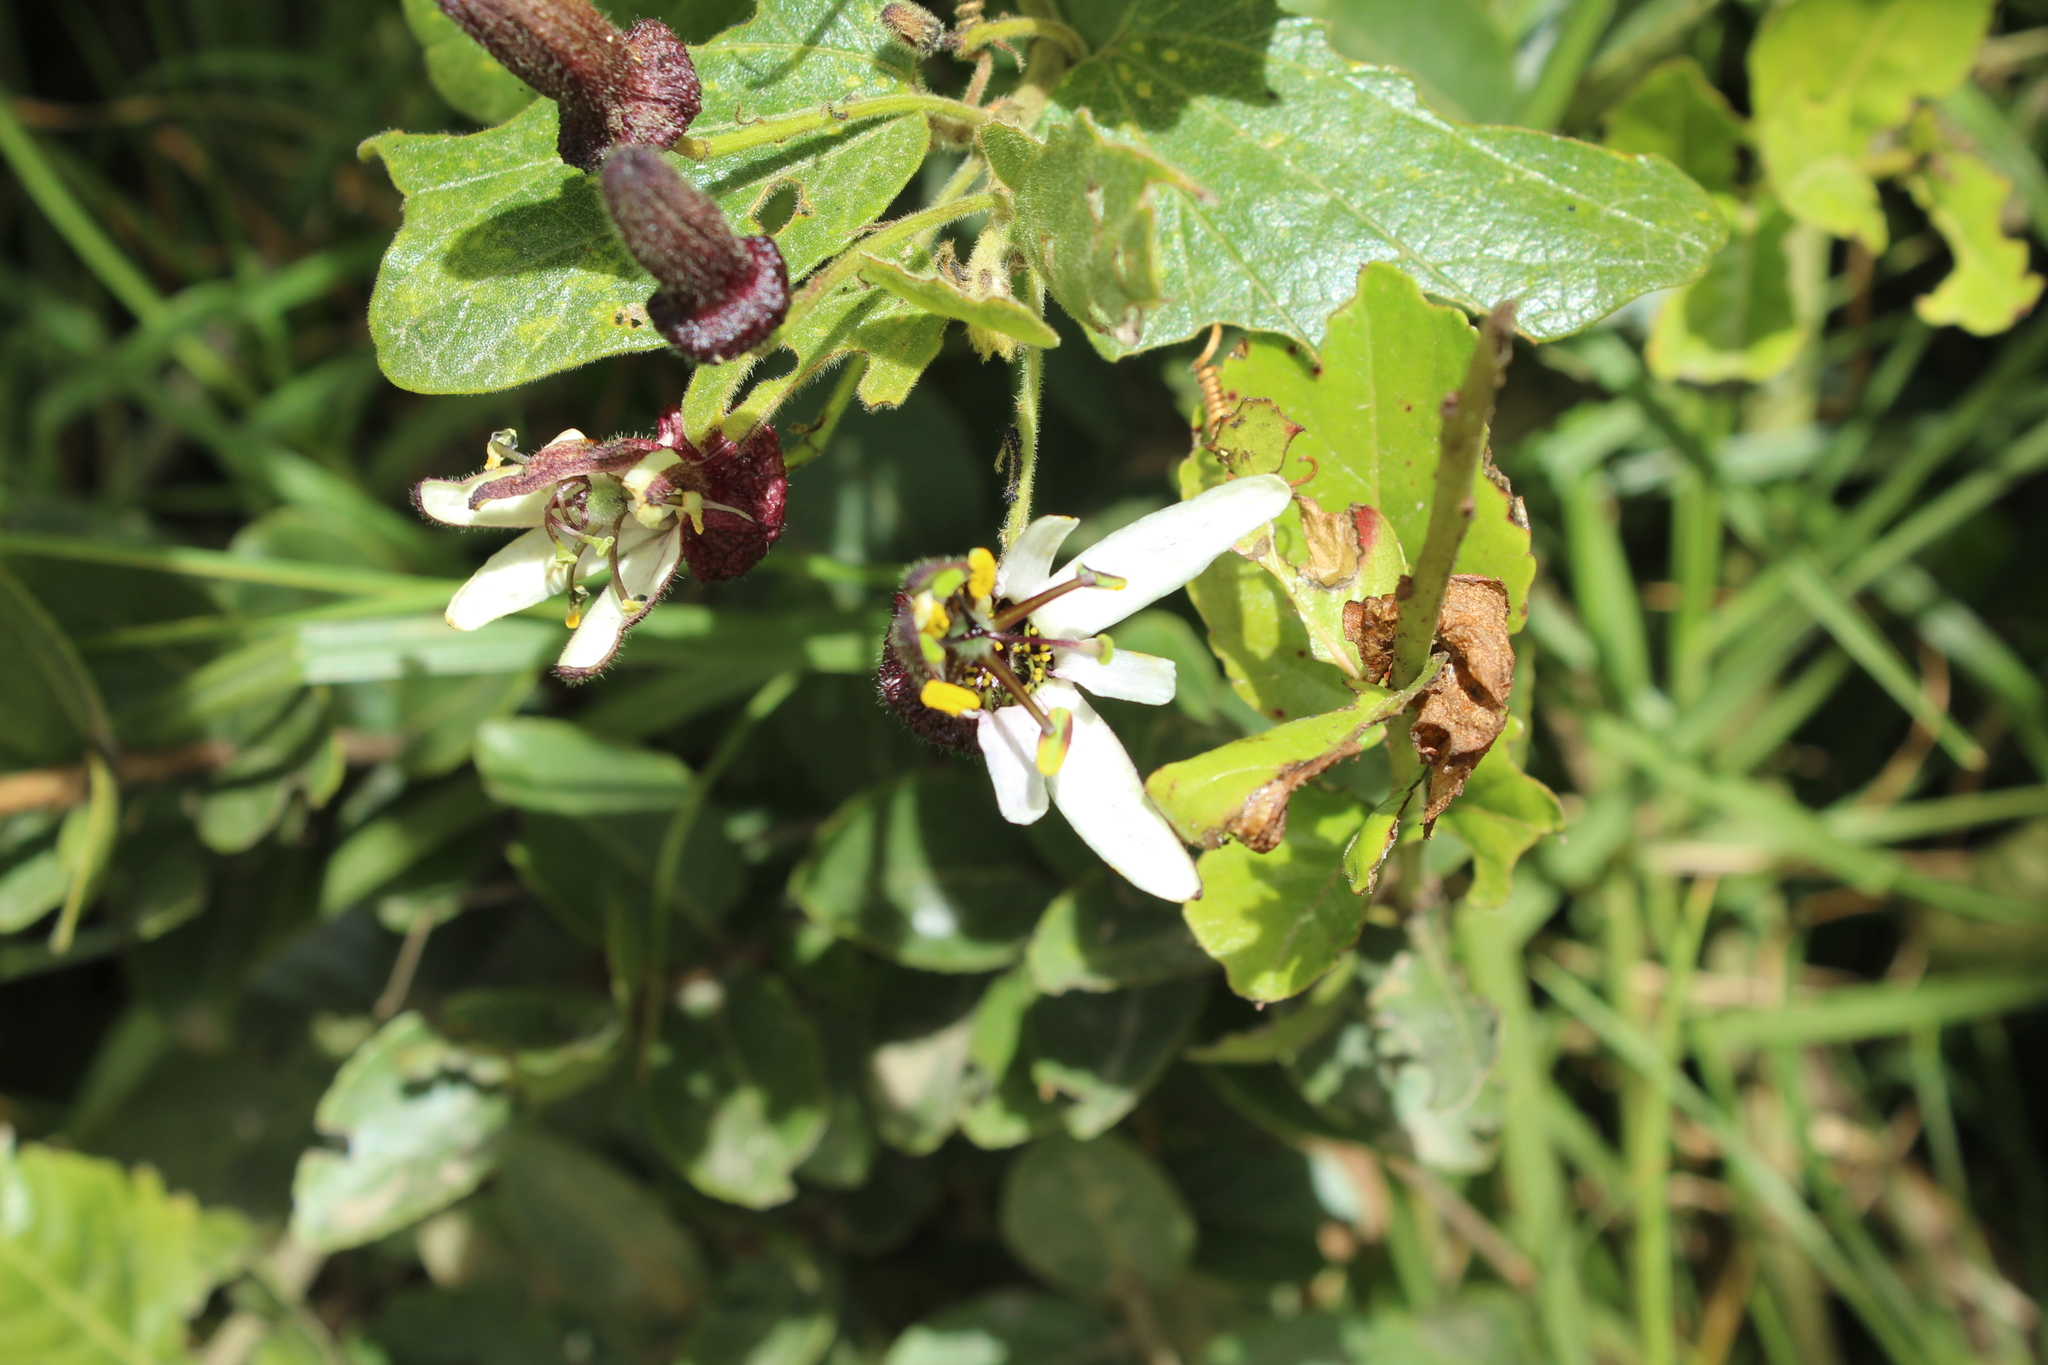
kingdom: Plantae
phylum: Tracheophyta
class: Magnoliopsida
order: Malpighiales
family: Passifloraceae
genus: Passiflora
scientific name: Passiflora bogotensis
